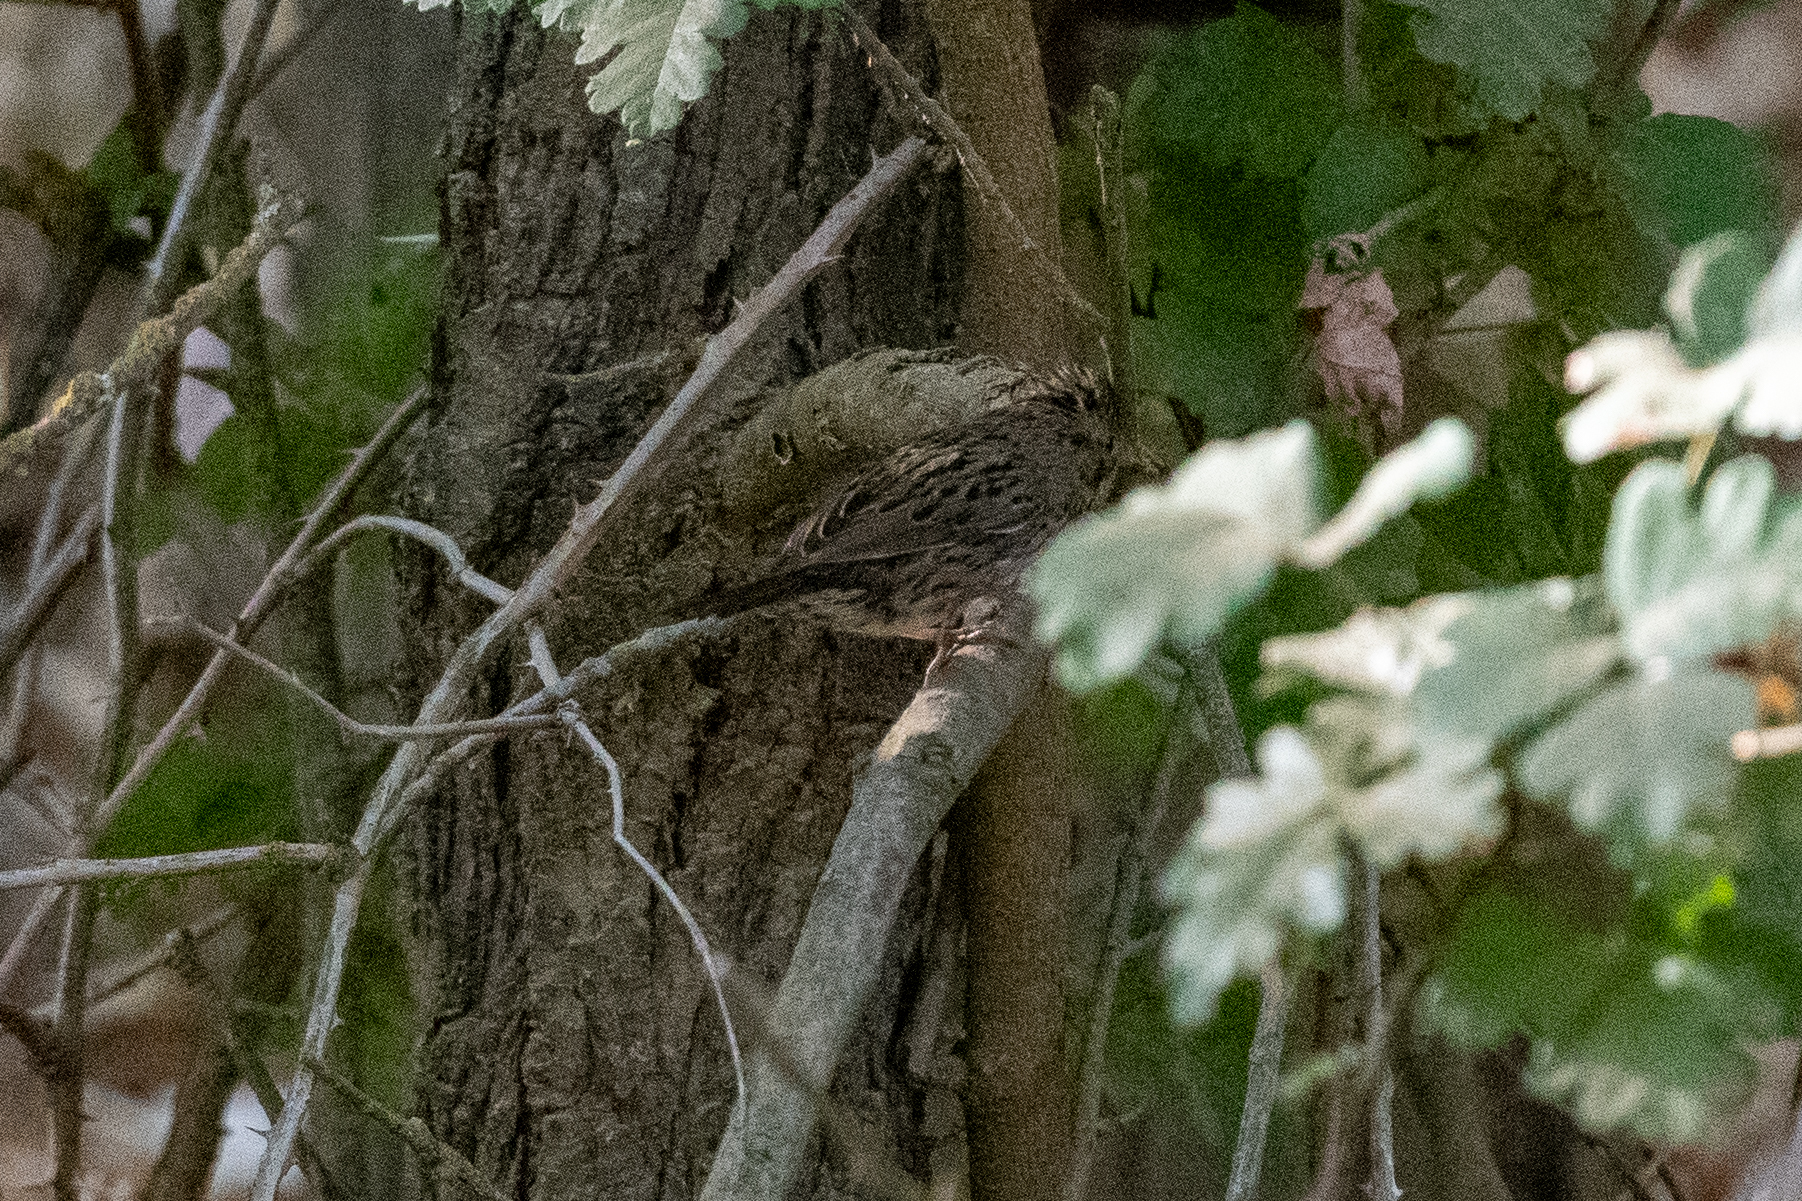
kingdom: Animalia
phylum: Chordata
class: Aves
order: Passeriformes
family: Passerellidae
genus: Melospiza
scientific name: Melospiza lincolnii
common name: Lincoln's sparrow
